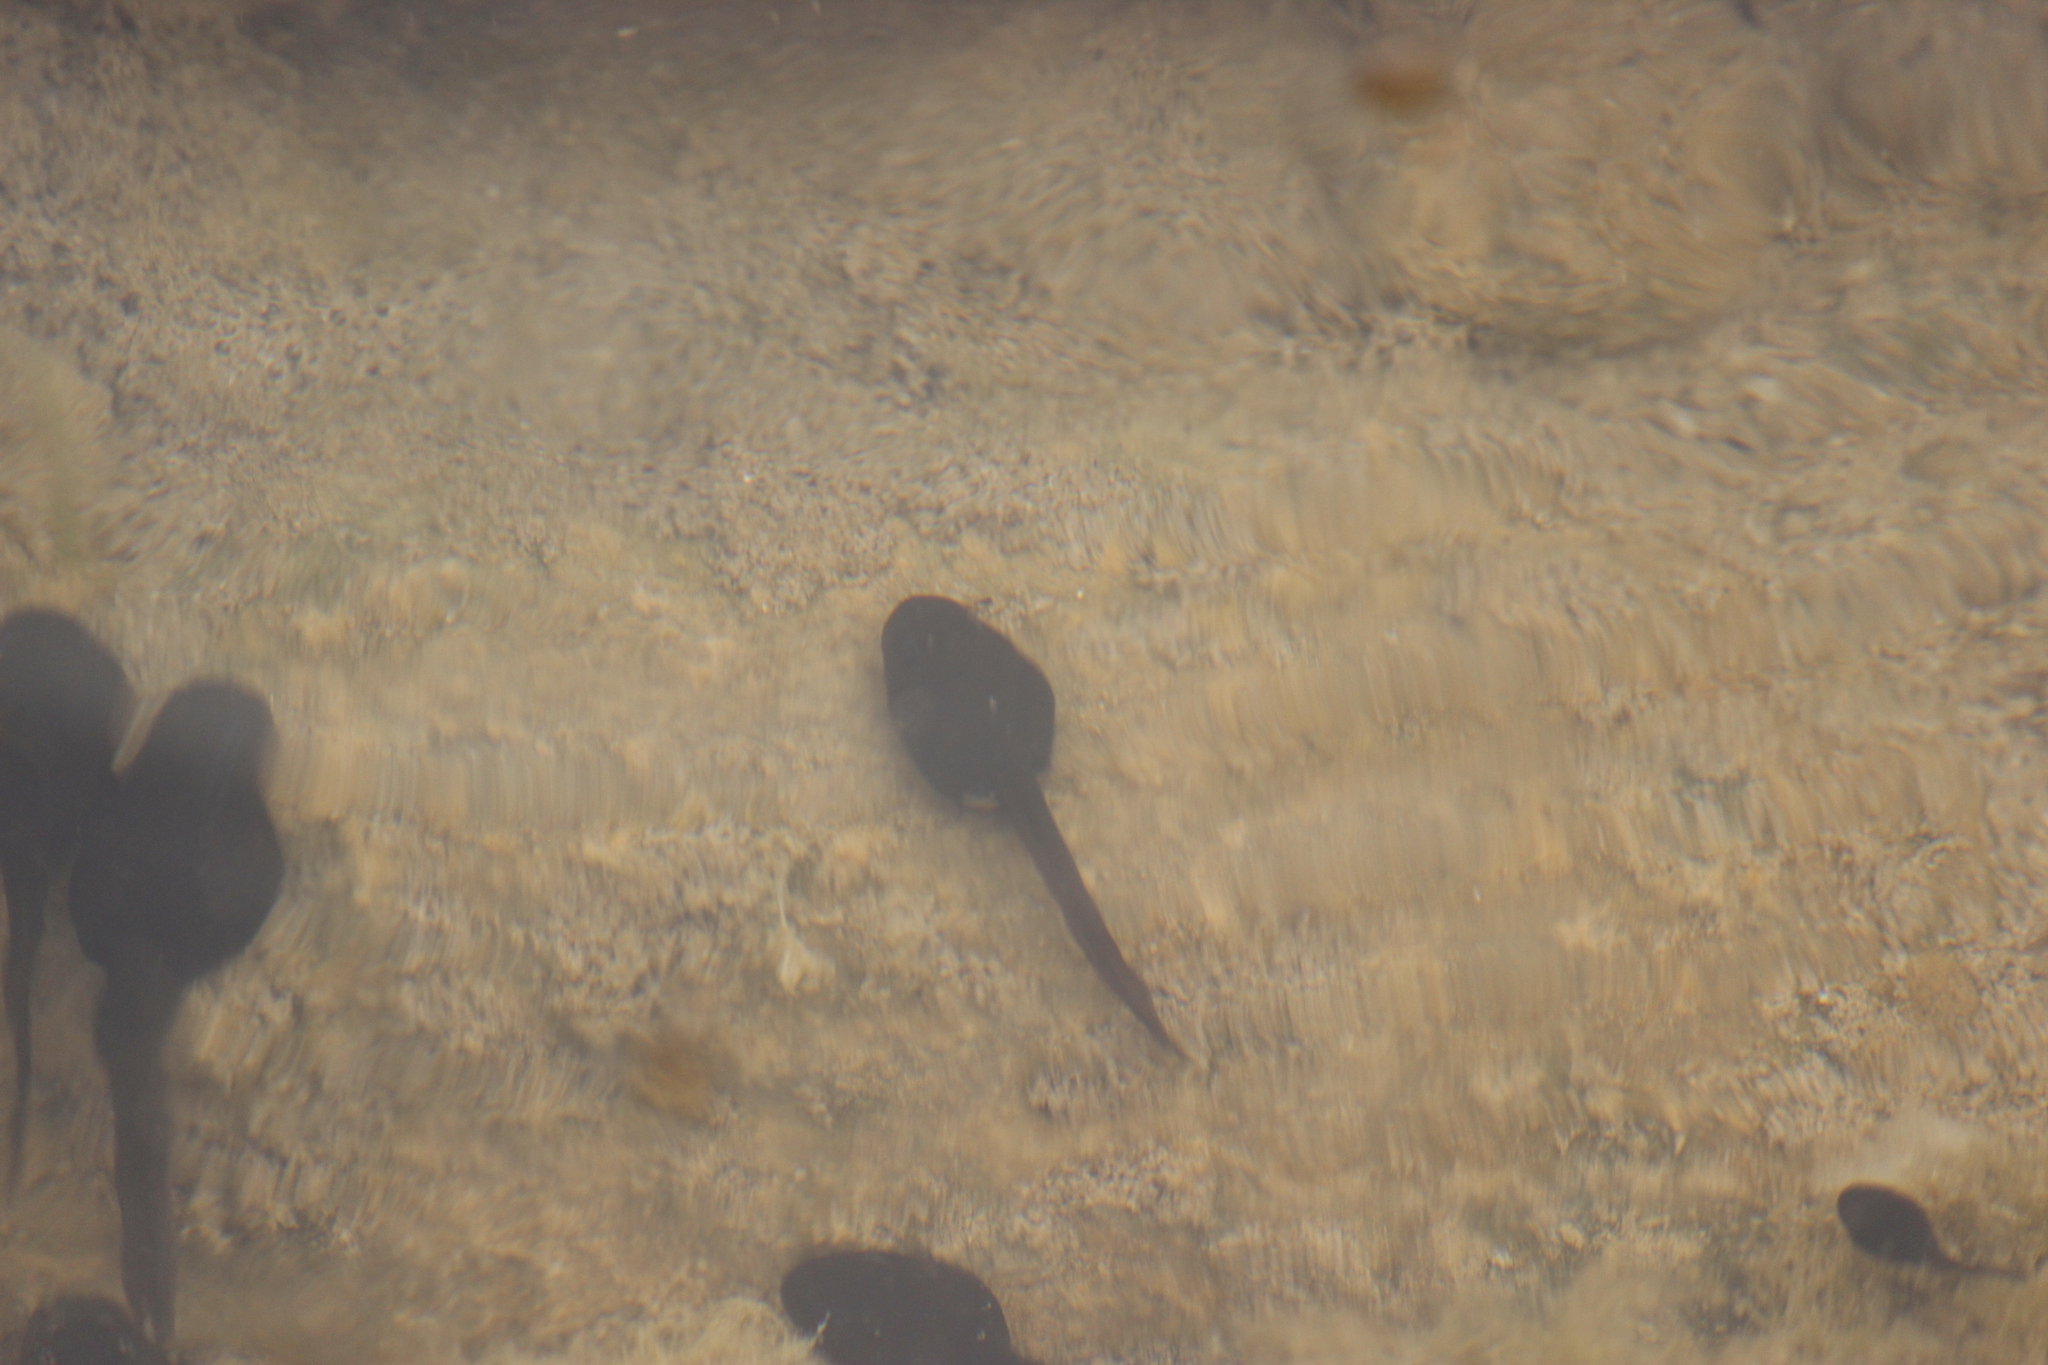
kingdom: Animalia
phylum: Chordata
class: Amphibia
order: Anura
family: Bufonidae
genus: Rhinella
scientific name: Rhinella limensis
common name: Peru coast toad
